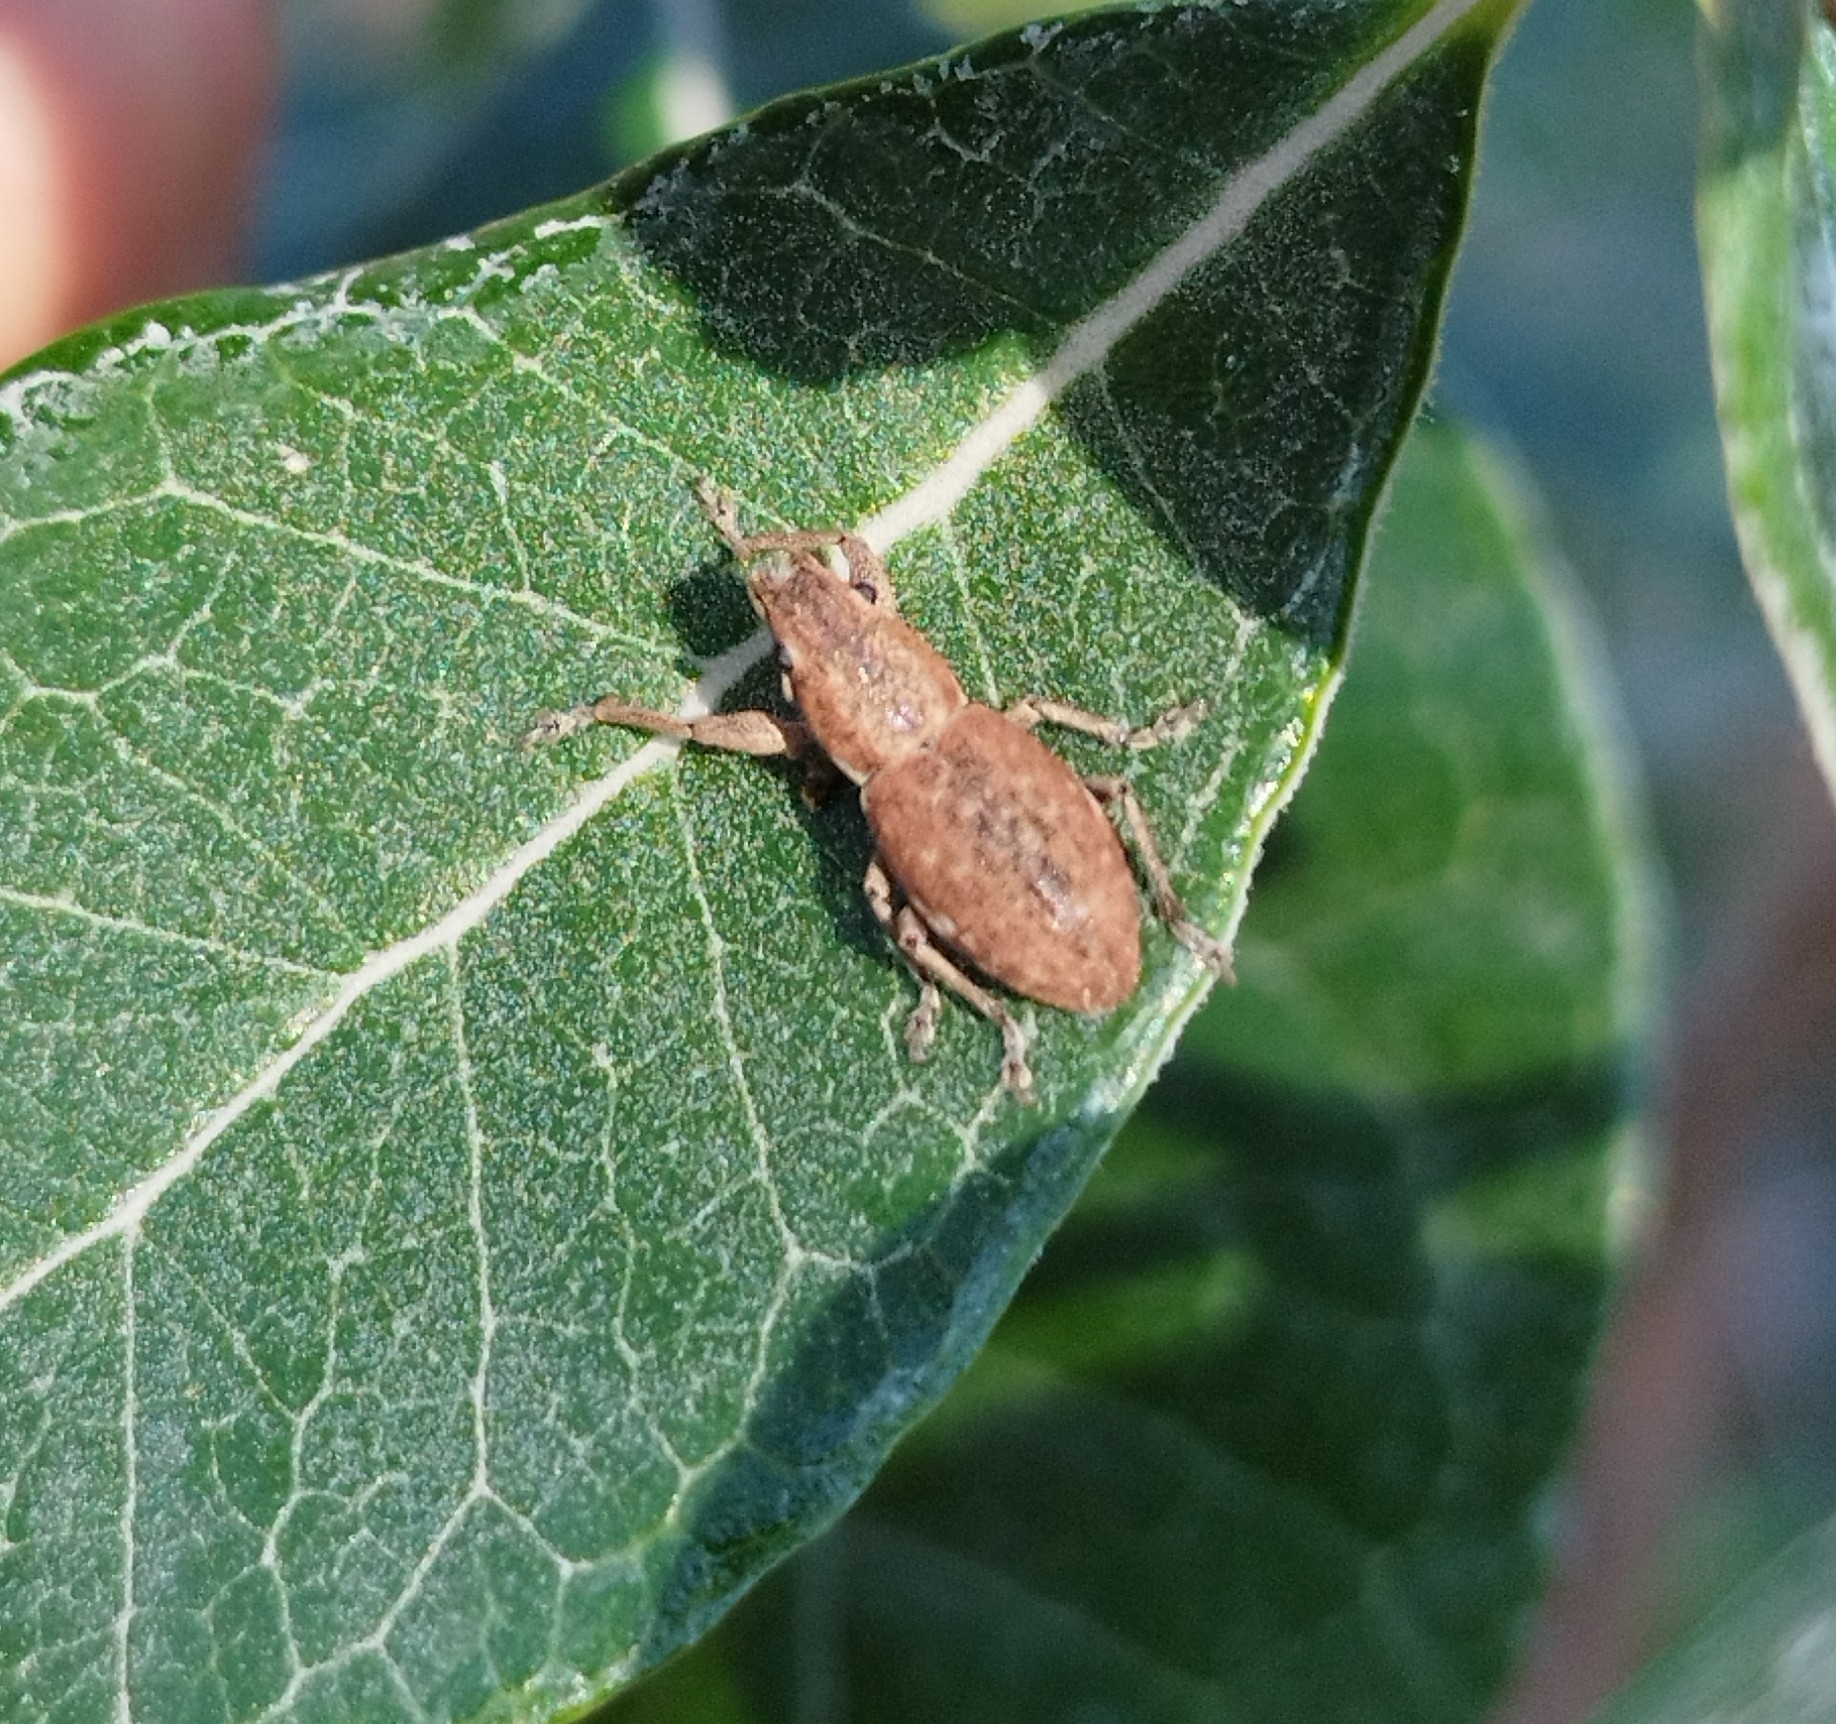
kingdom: Animalia
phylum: Arthropoda
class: Insecta
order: Coleoptera
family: Curculionidae
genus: Naupactus
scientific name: Naupactus cervinus
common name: Fuller rose beetle
